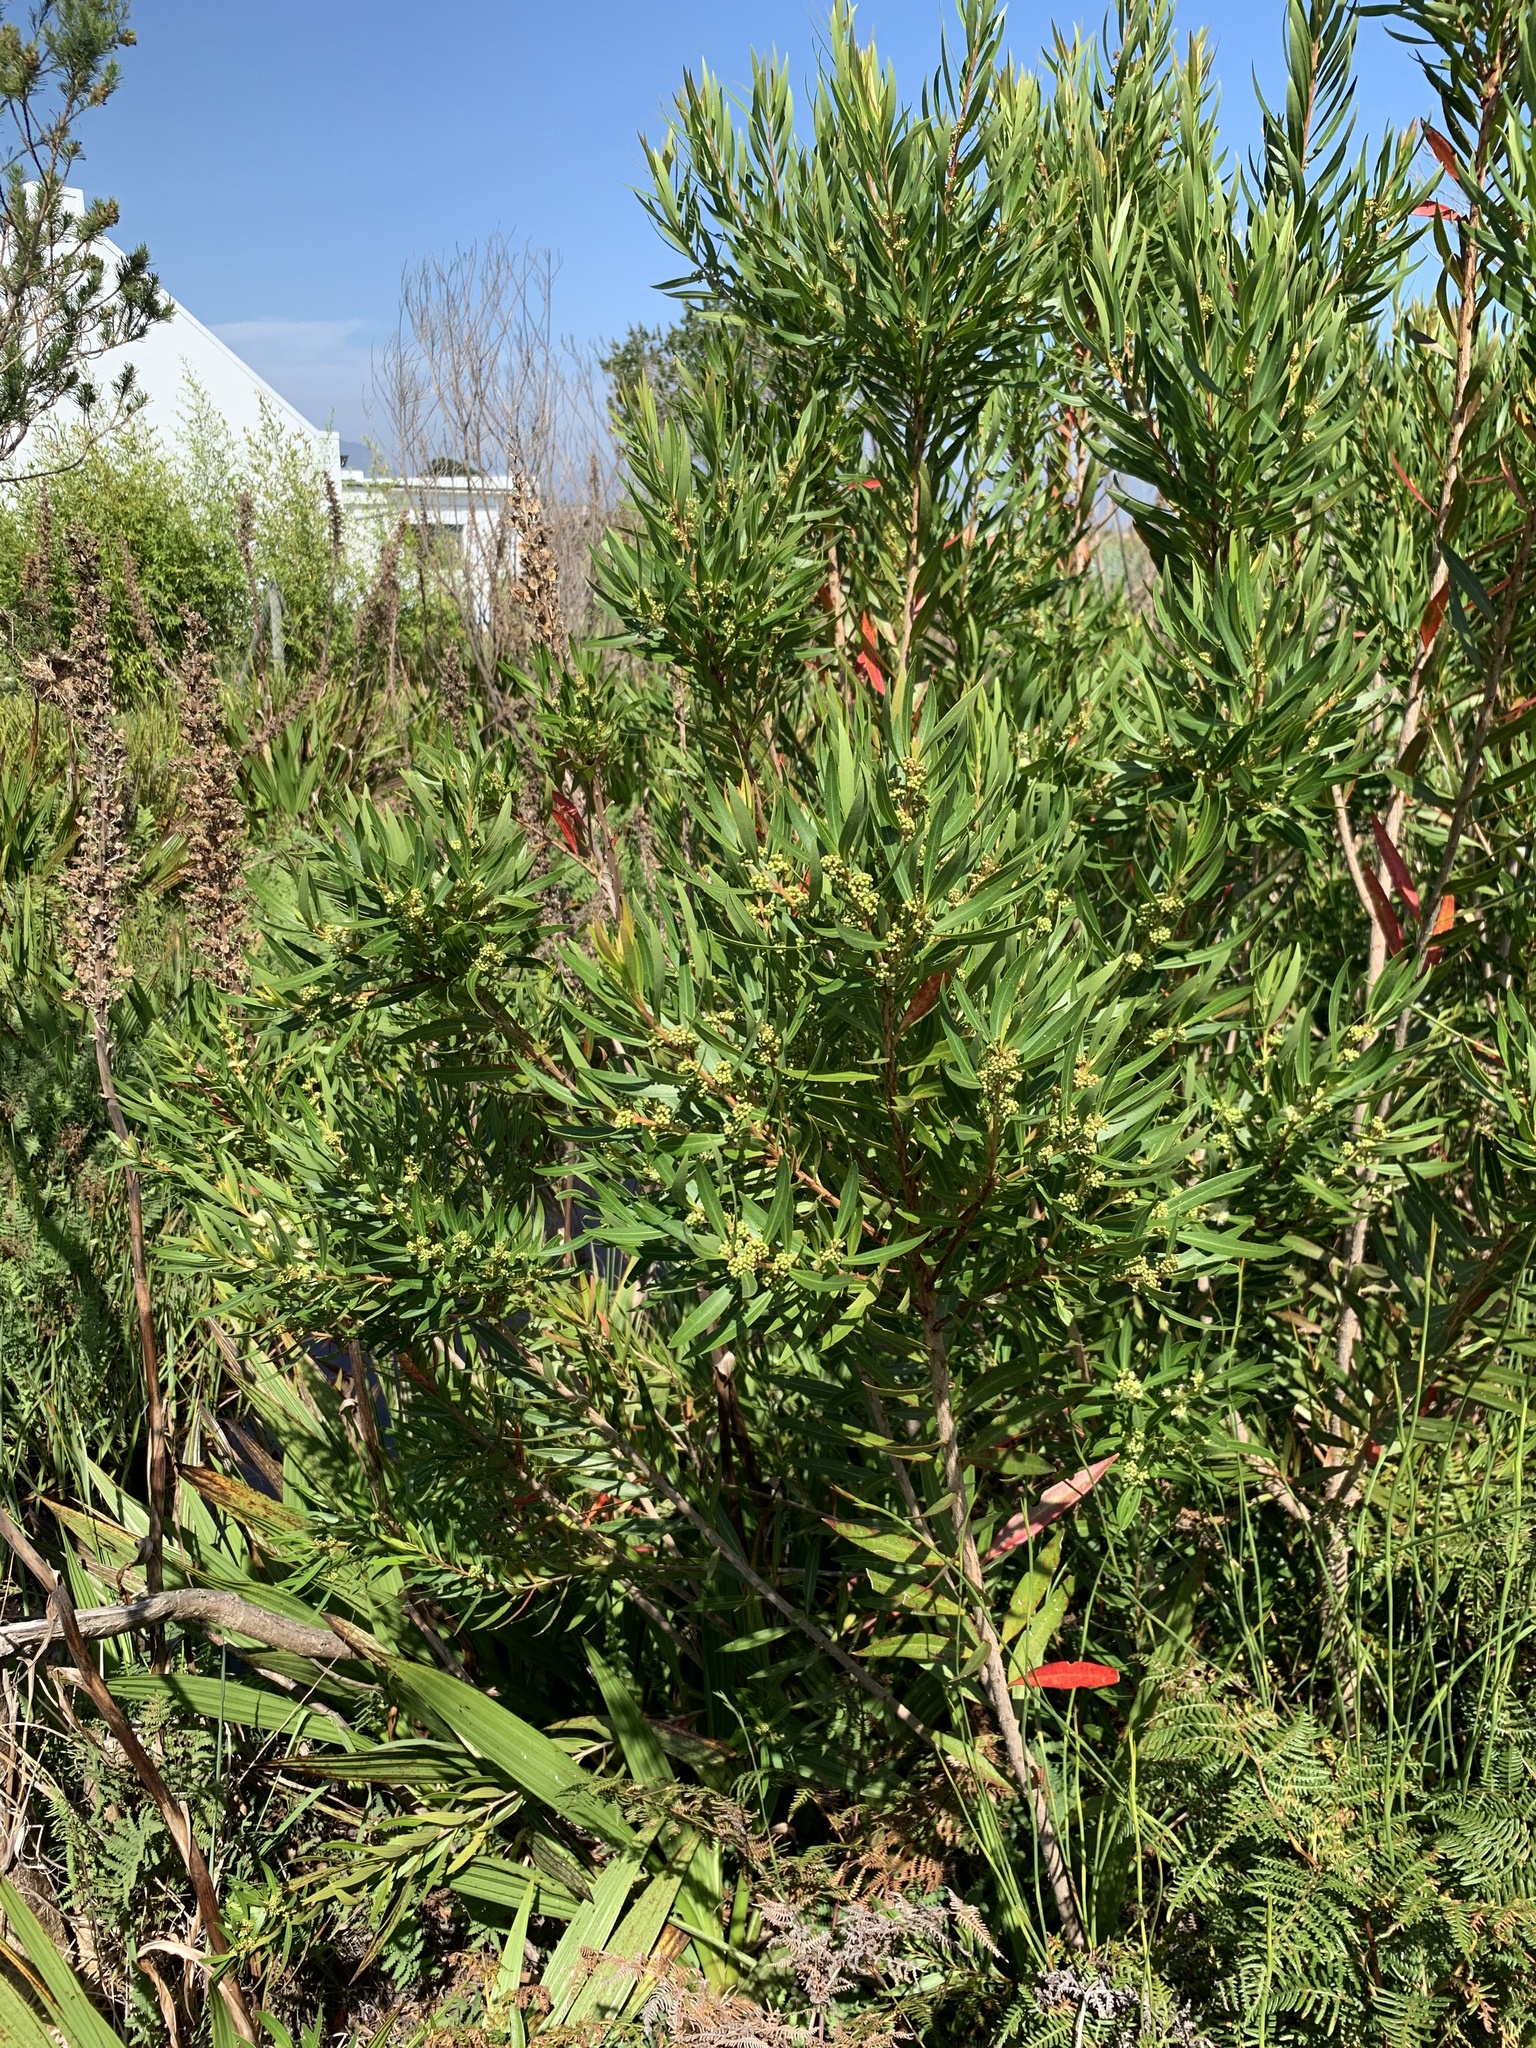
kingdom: Plantae
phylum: Tracheophyta
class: Magnoliopsida
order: Myrtales
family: Myrtaceae
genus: Callistemon
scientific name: Callistemon lanceolatus
